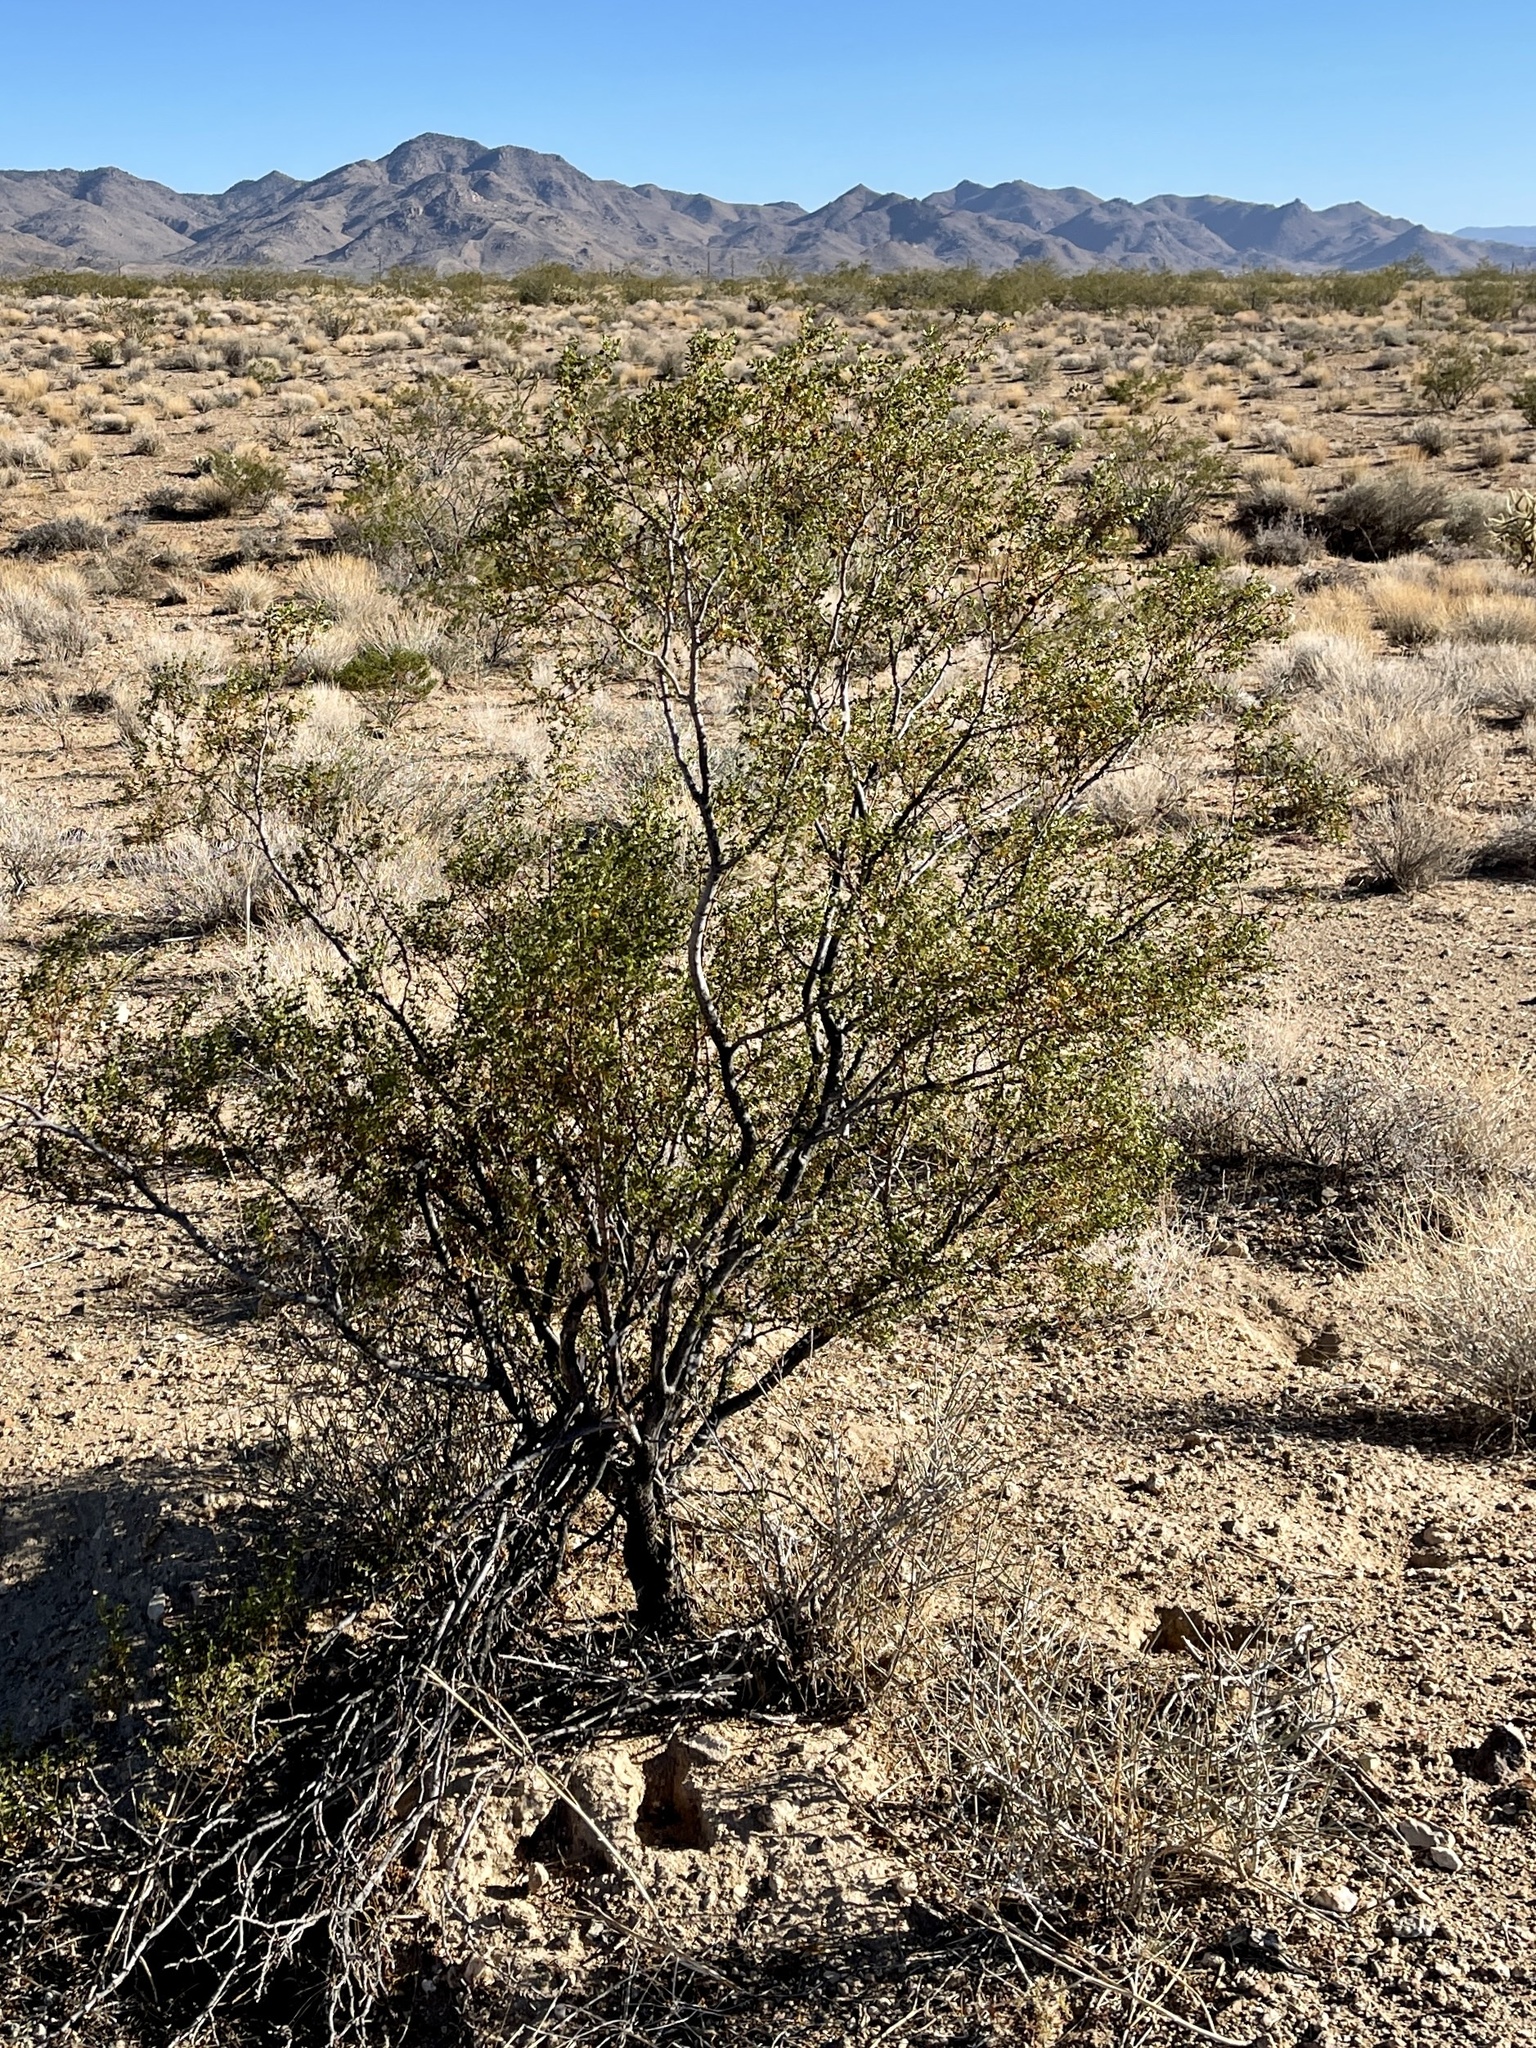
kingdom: Plantae
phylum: Tracheophyta
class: Magnoliopsida
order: Zygophyllales
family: Zygophyllaceae
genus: Larrea
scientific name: Larrea tridentata
